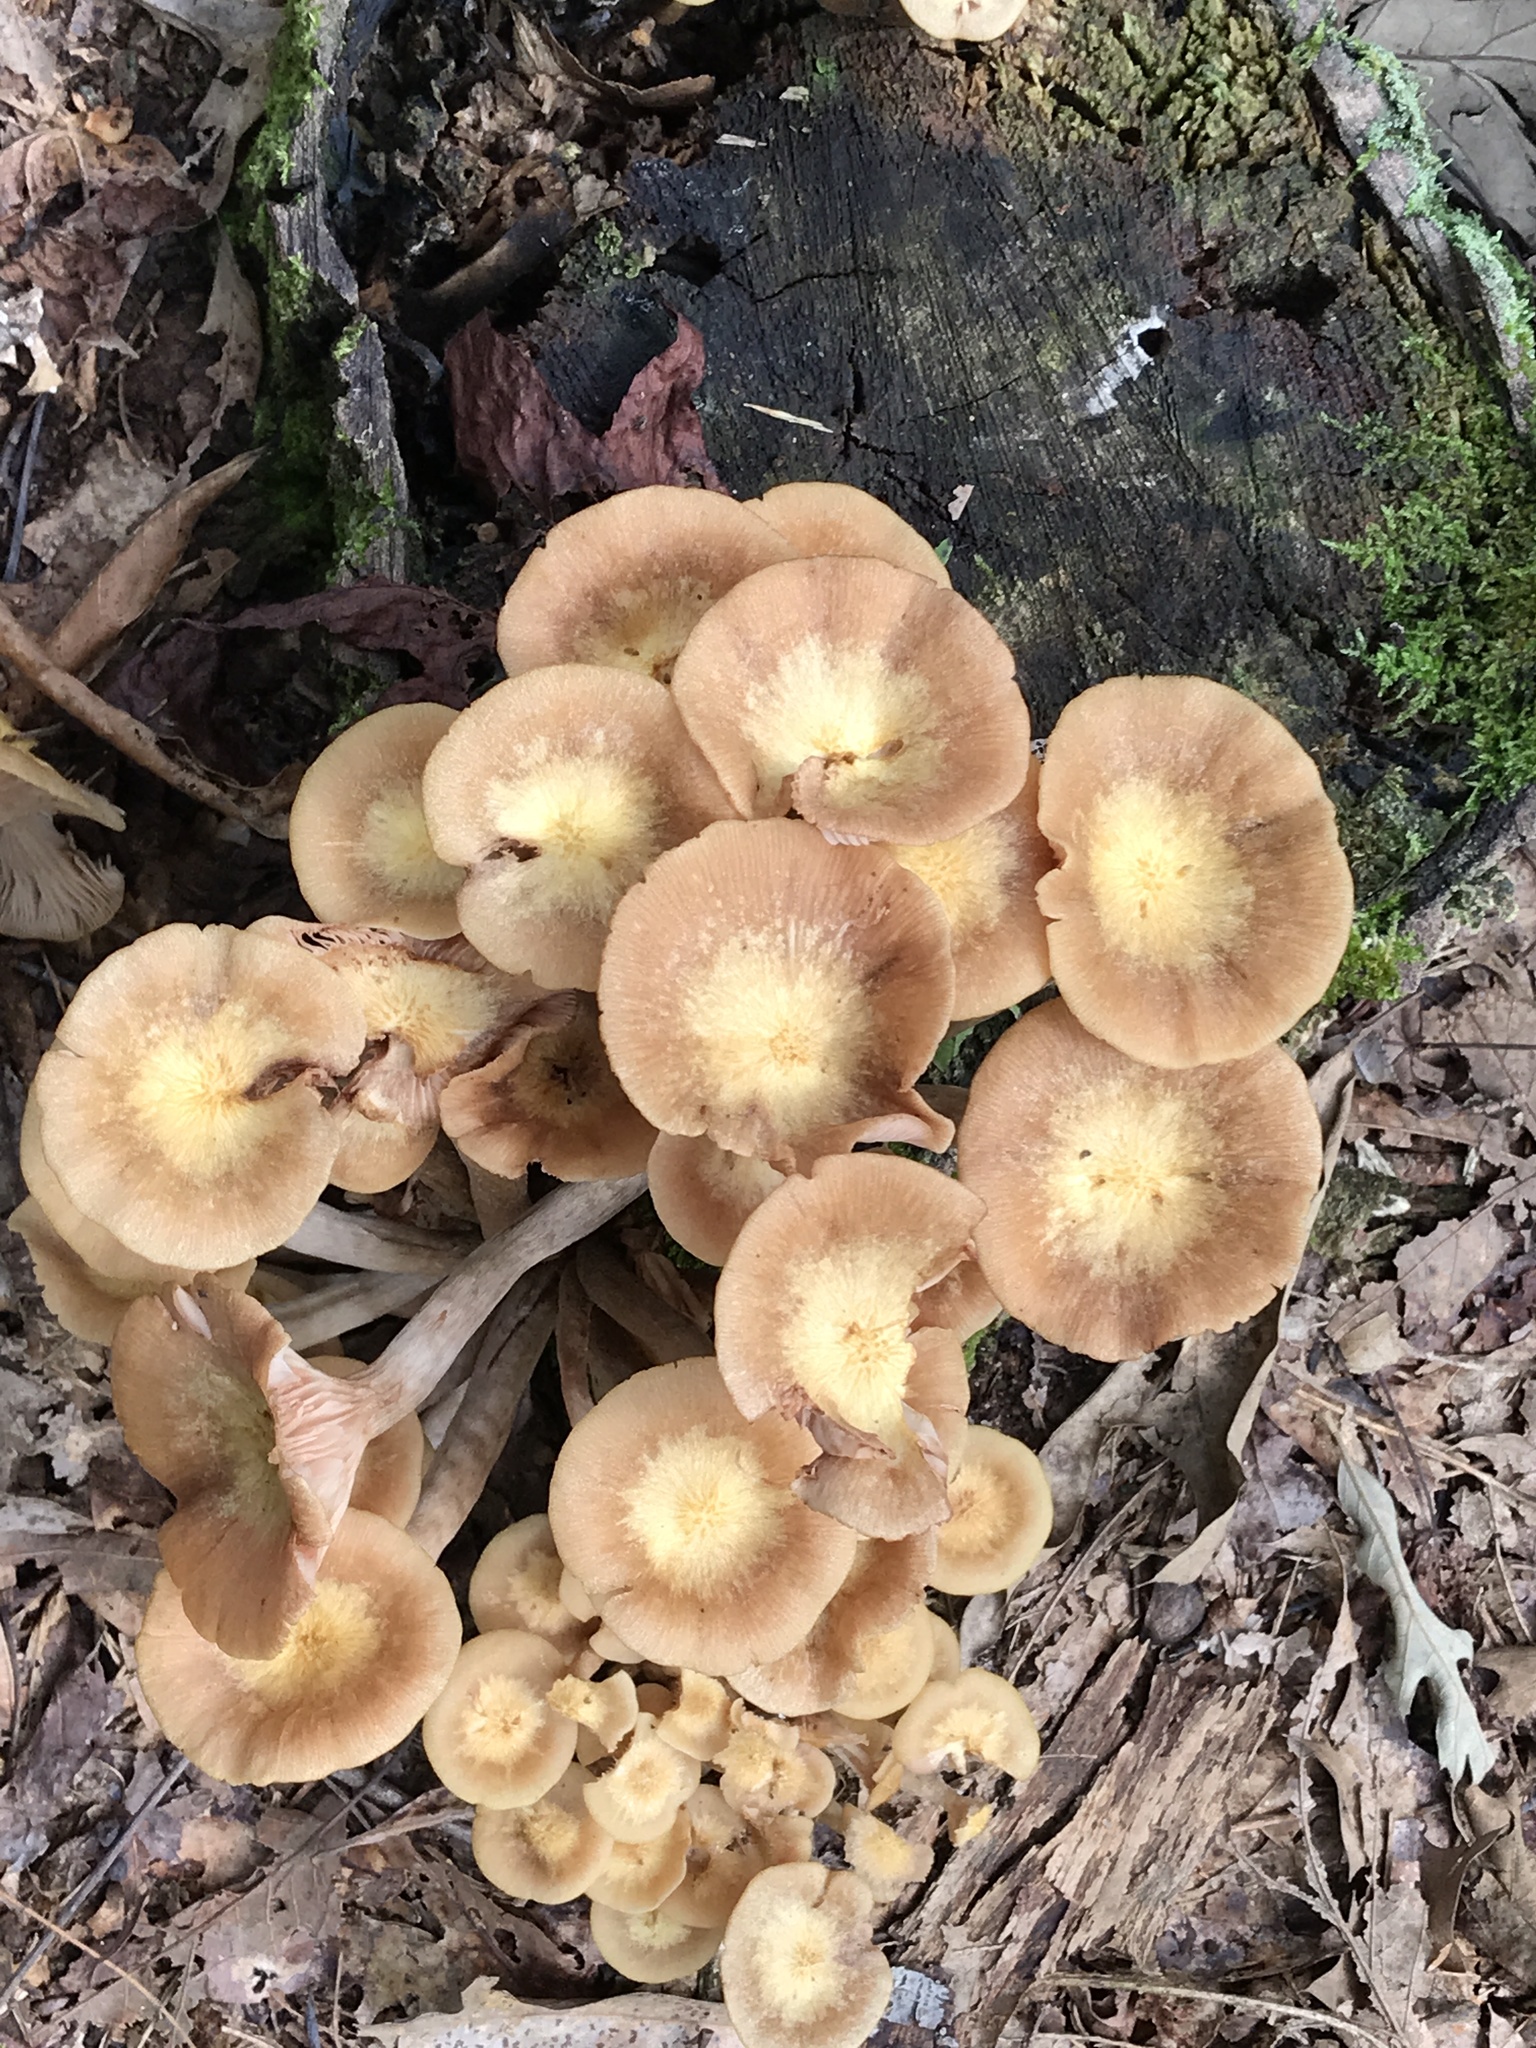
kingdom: Fungi
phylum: Basidiomycota
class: Agaricomycetes
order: Agaricales
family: Physalacriaceae
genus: Desarmillaria
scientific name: Desarmillaria caespitosa
